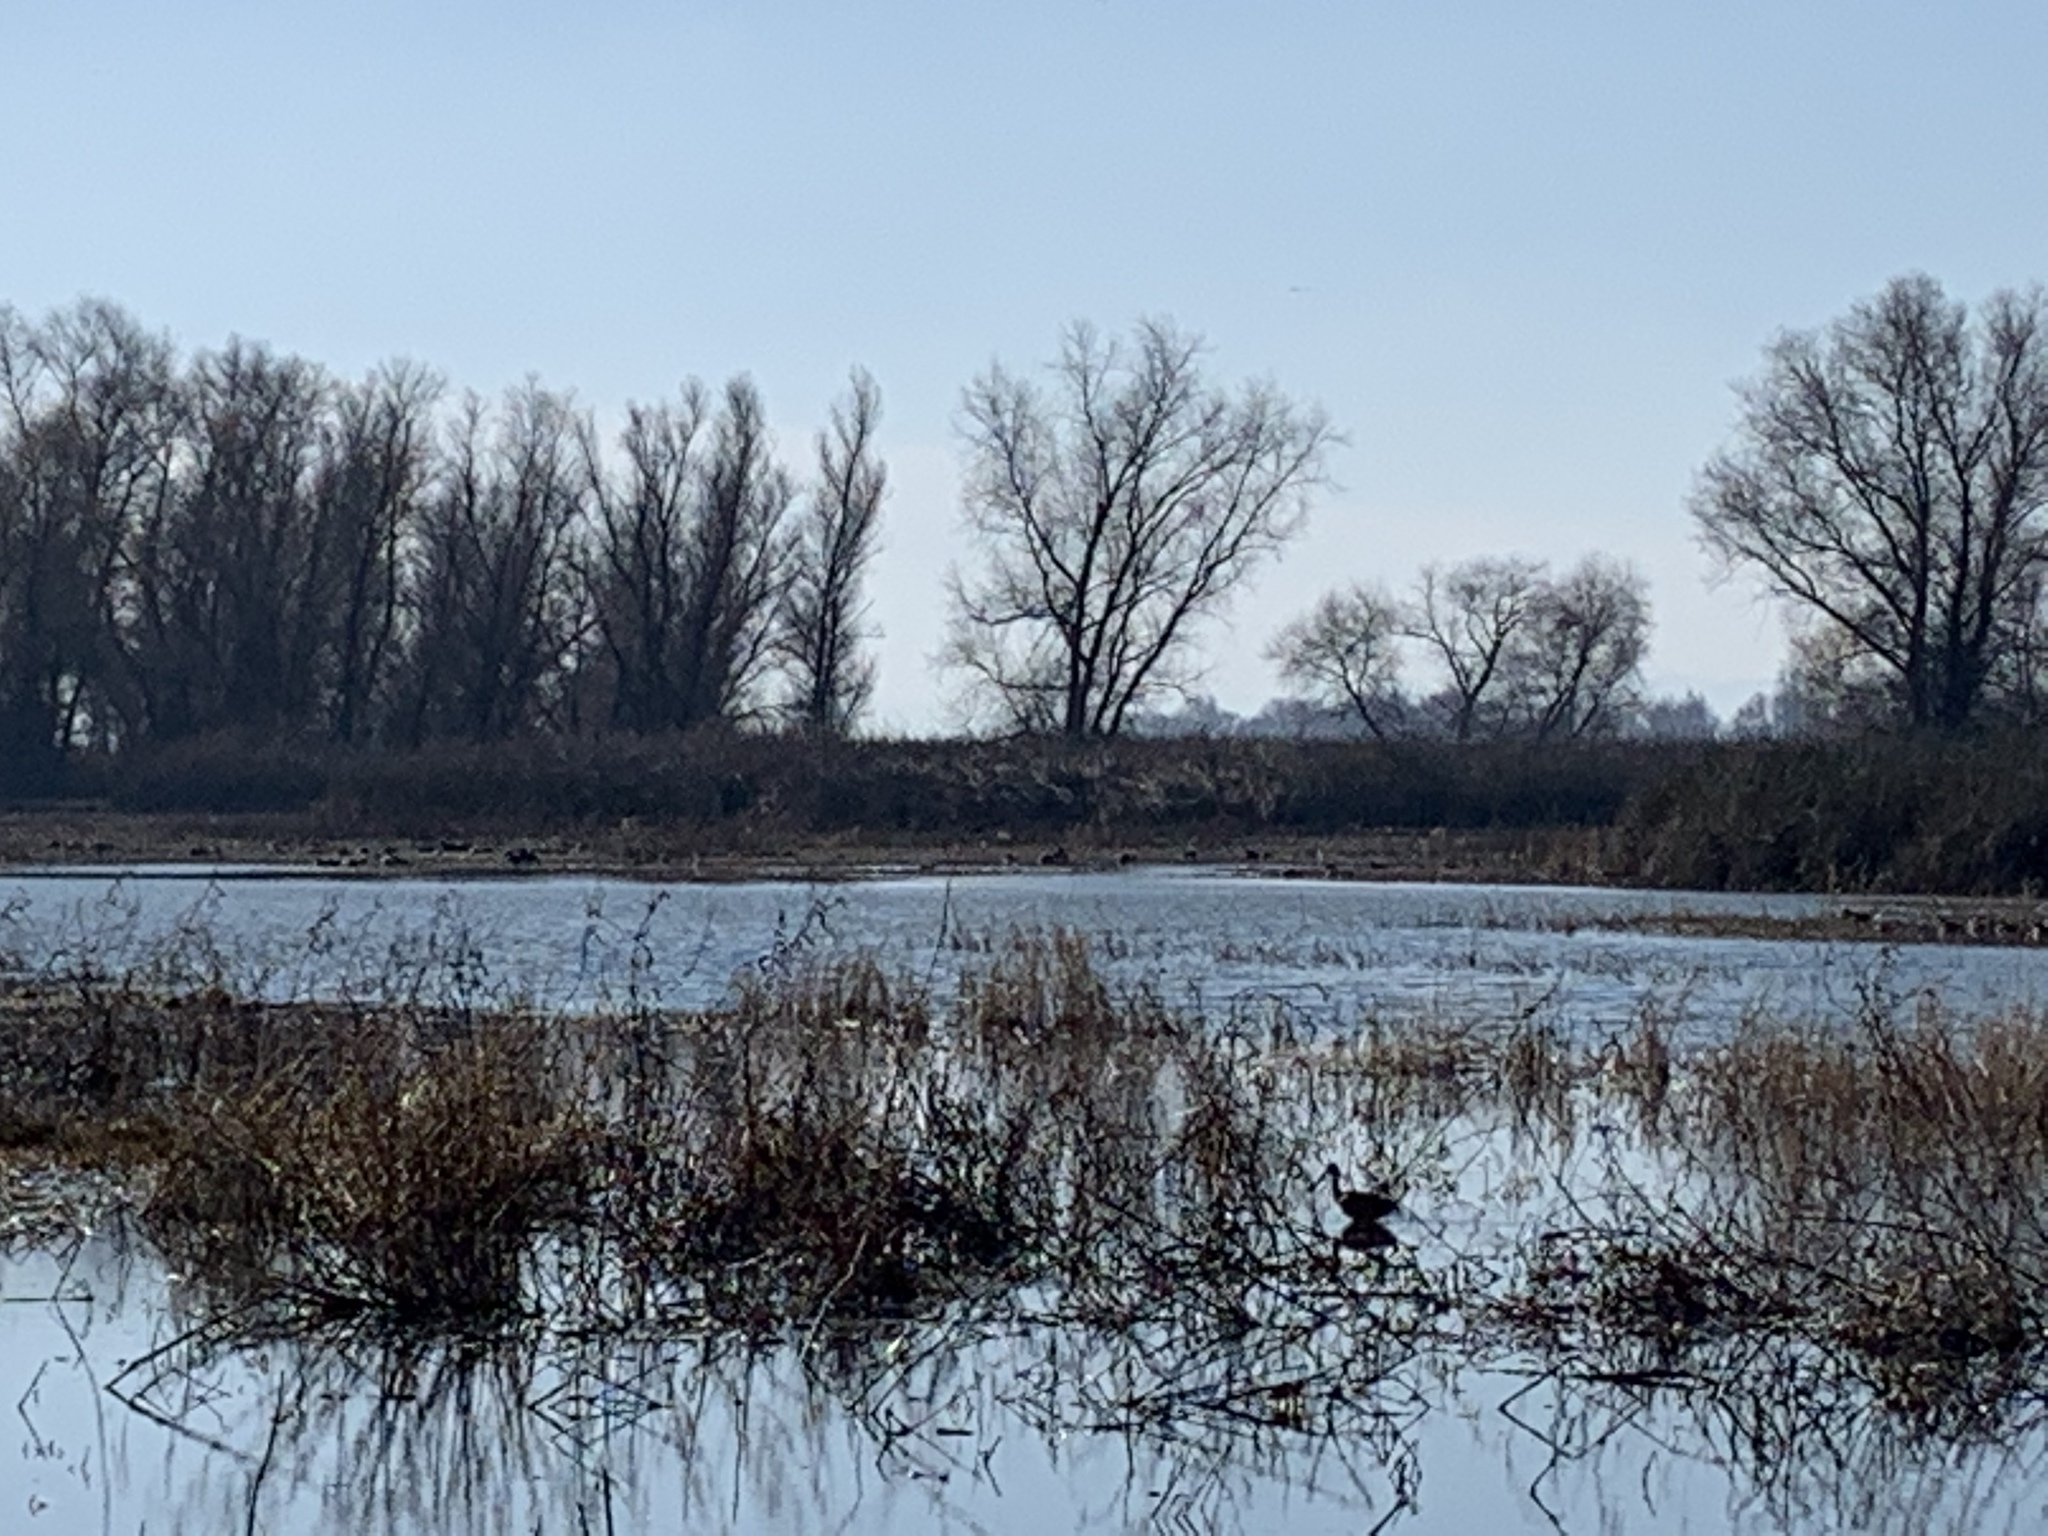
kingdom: Animalia
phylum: Chordata
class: Aves
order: Pelecaniformes
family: Threskiornithidae
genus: Plegadis
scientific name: Plegadis chihi
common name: White-faced ibis
